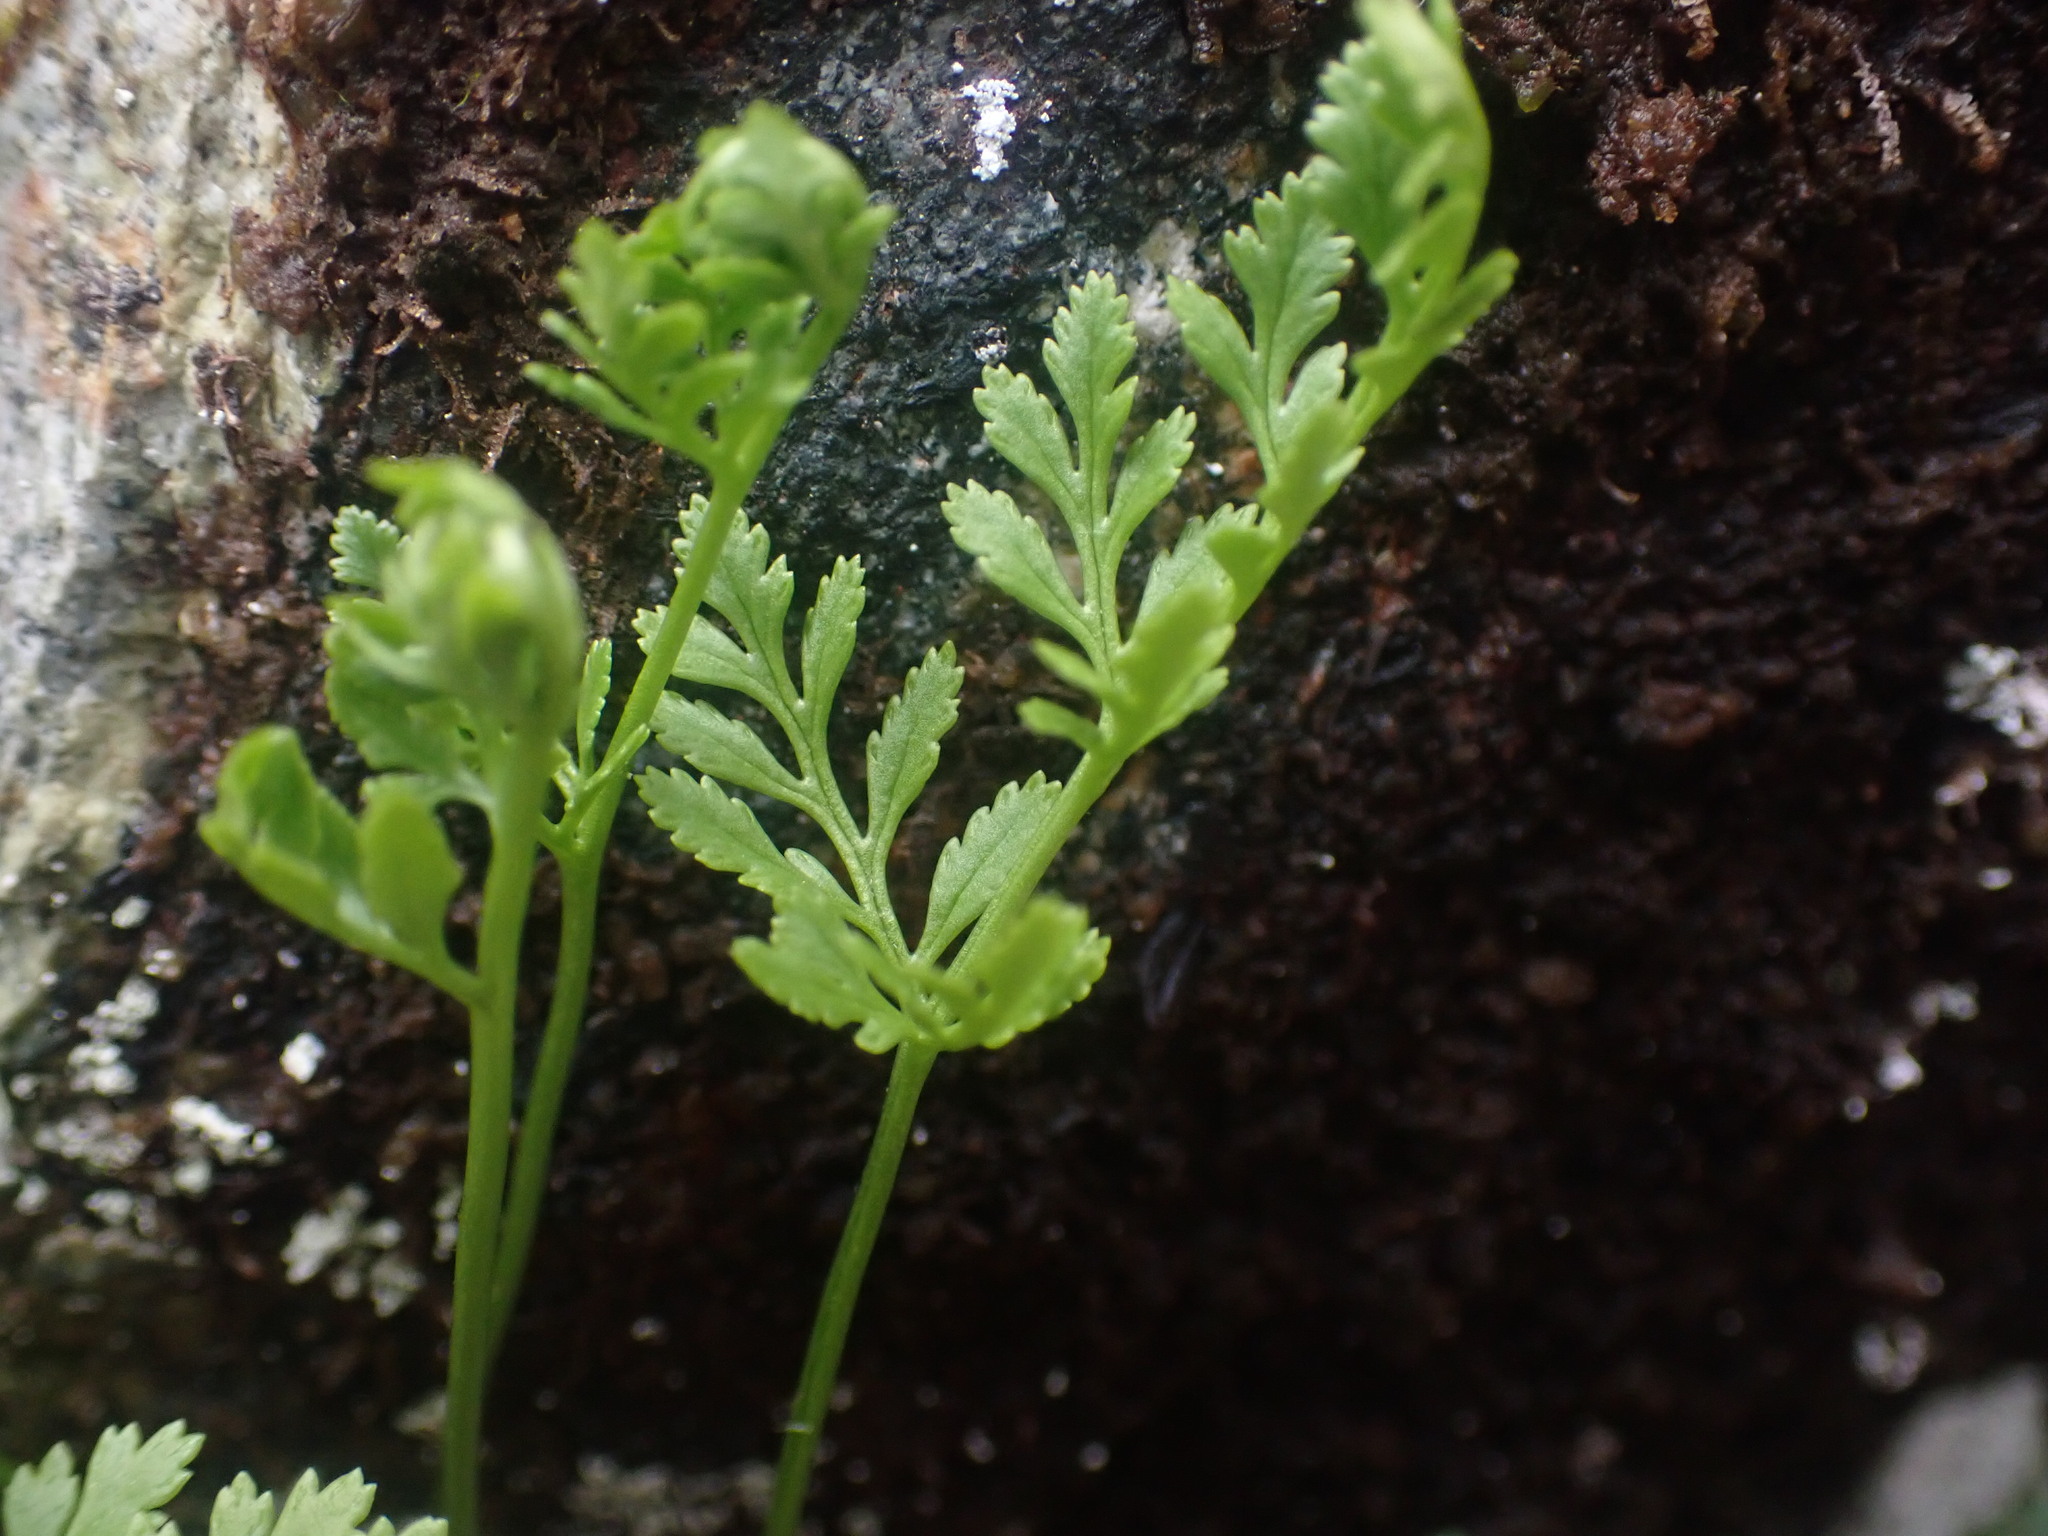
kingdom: Plantae
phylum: Tracheophyta
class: Polypodiopsida
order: Polypodiales
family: Pteridaceae
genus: Cryptogramma
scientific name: Cryptogramma acrostichoides
